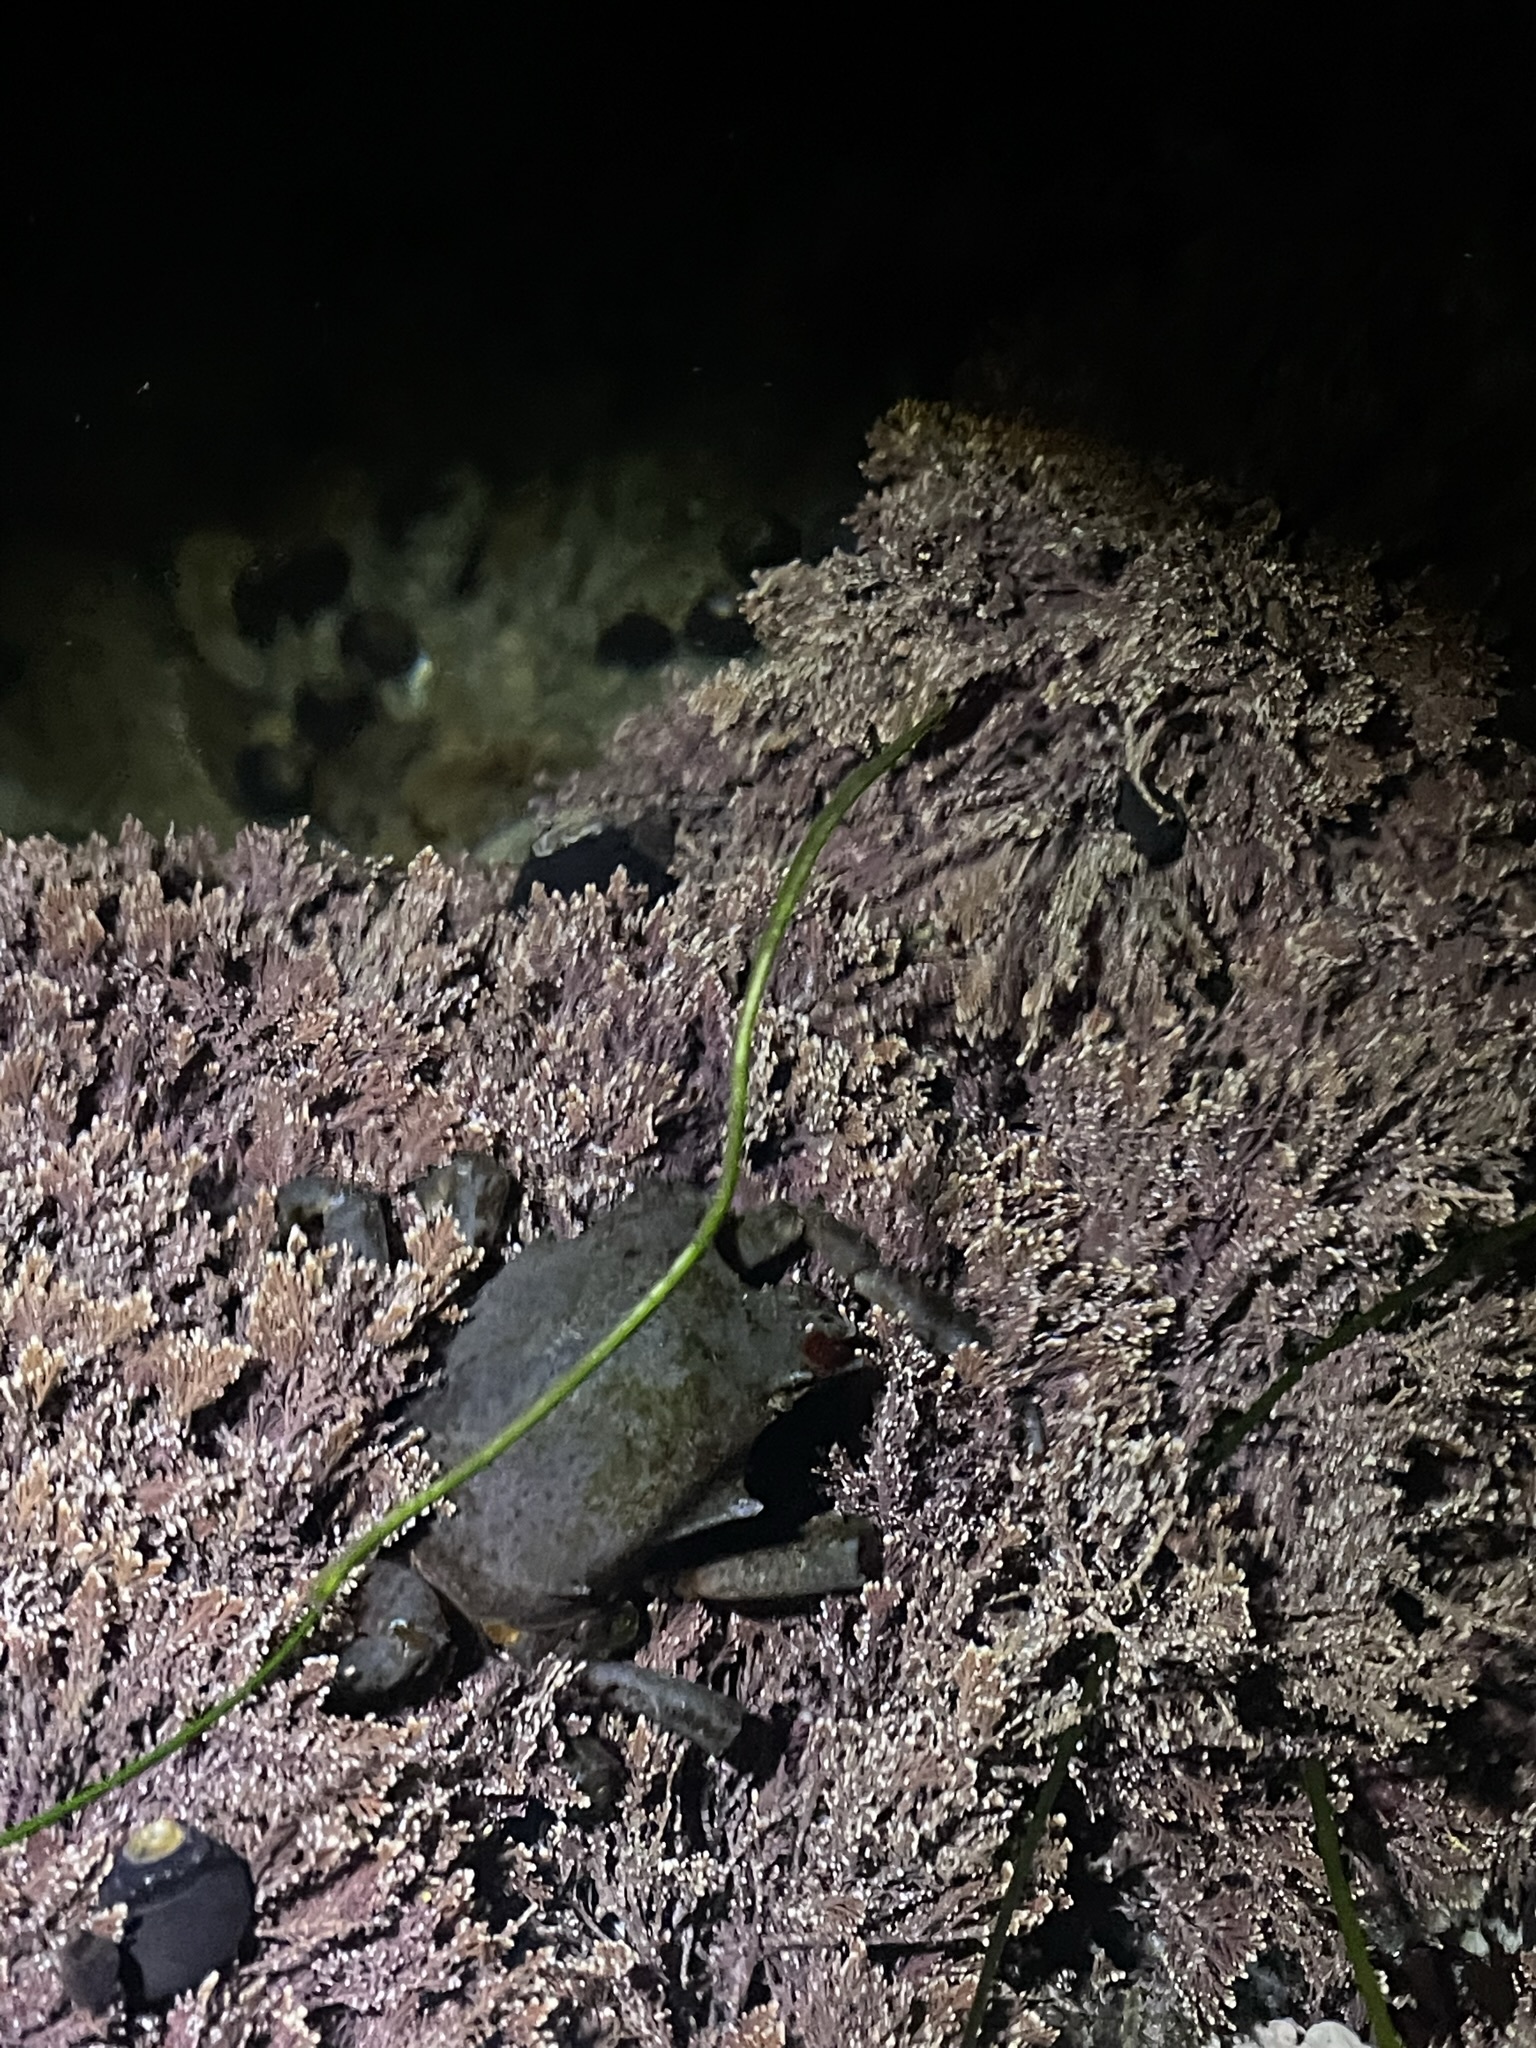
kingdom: Animalia
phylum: Arthropoda
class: Malacostraca
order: Decapoda
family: Epialtidae
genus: Pugettia
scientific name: Pugettia producta
